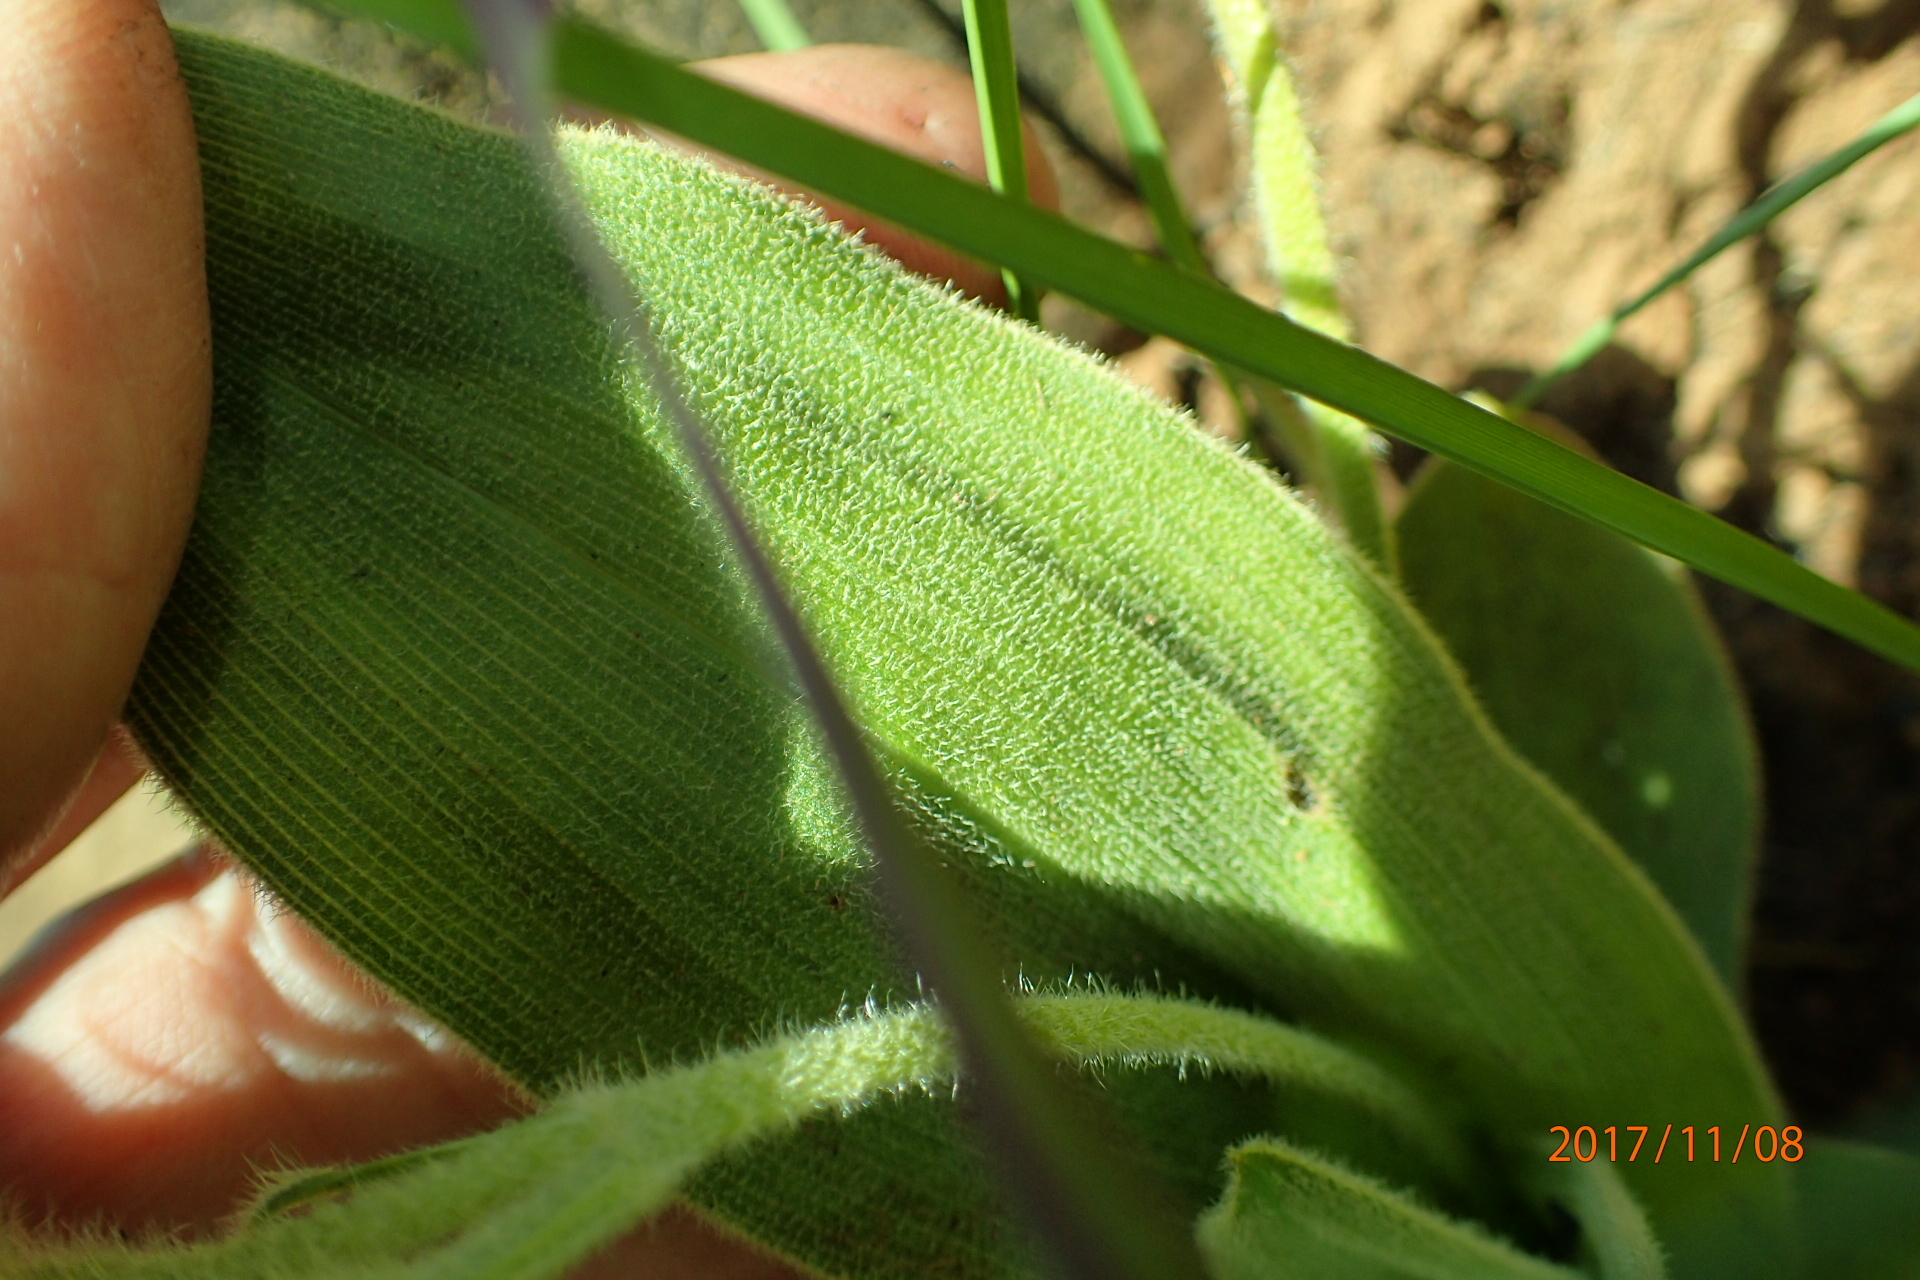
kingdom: Plantae
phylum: Tracheophyta
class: Liliopsida
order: Asparagales
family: Hypoxidaceae
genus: Hypoxis
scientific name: Hypoxis multiceps
